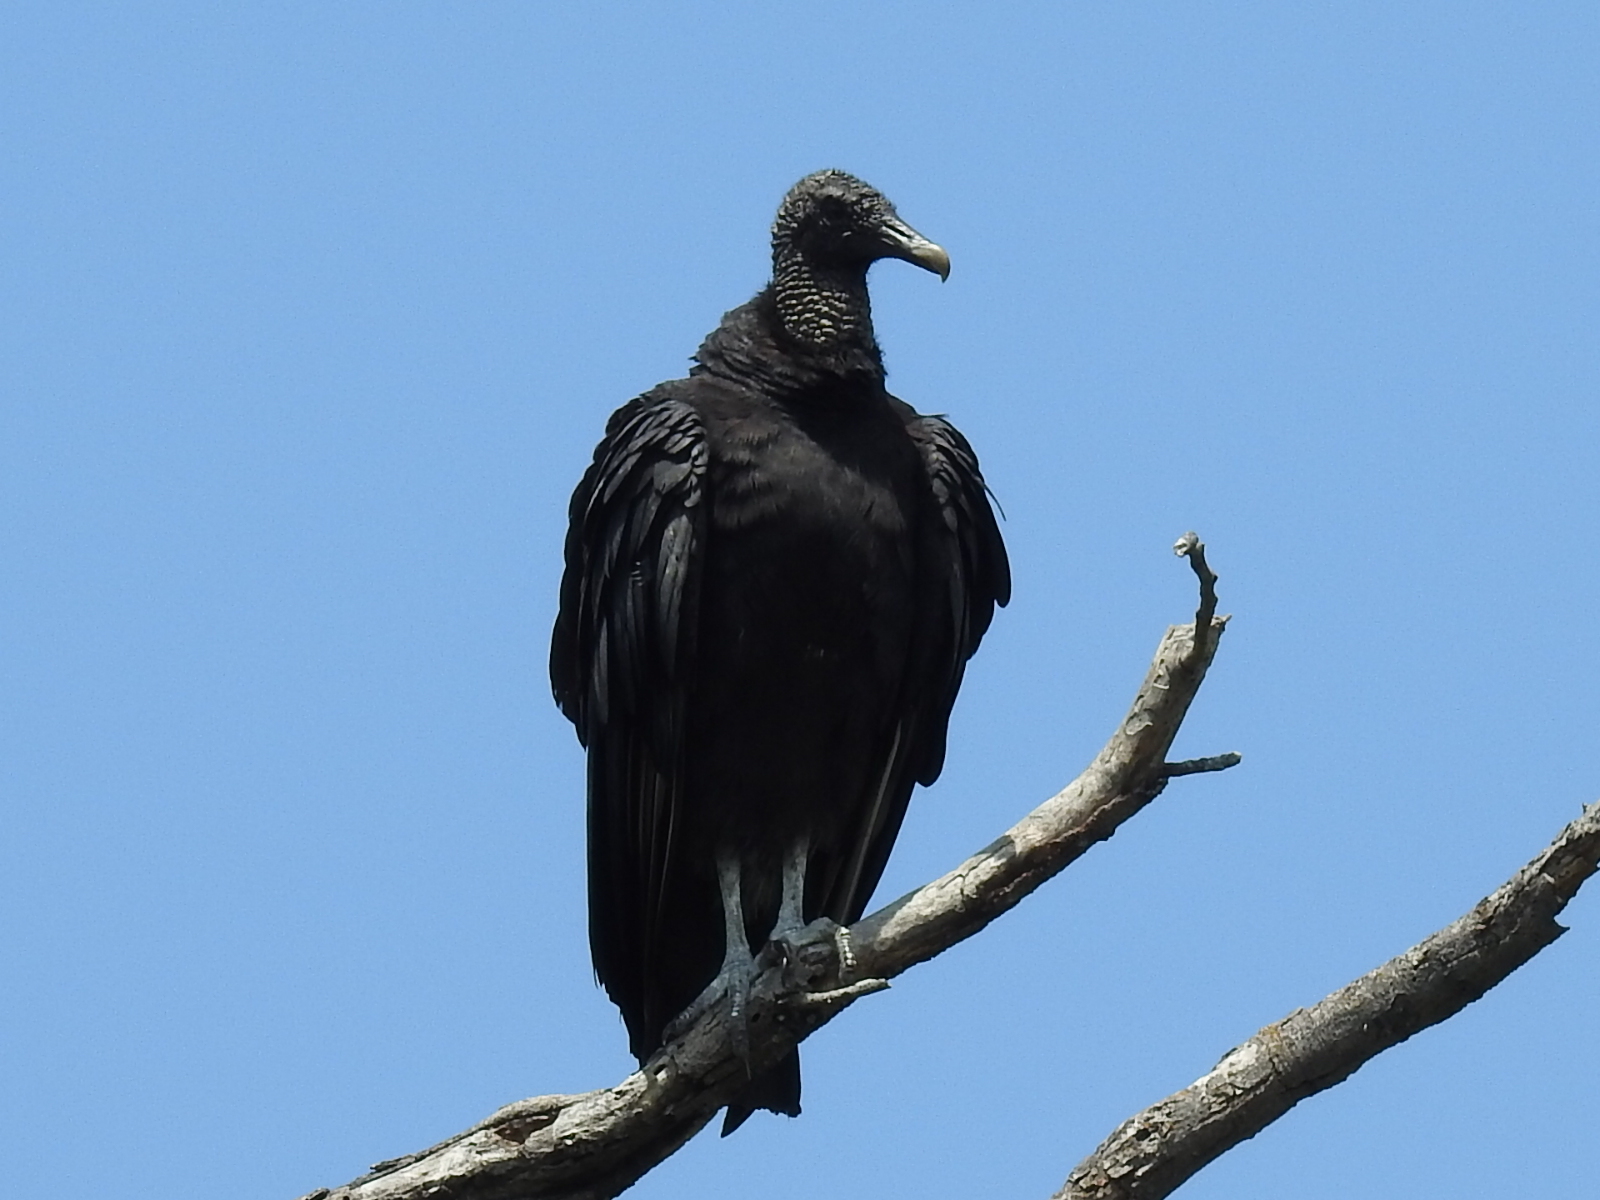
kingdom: Animalia
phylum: Chordata
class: Aves
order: Accipitriformes
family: Cathartidae
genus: Coragyps
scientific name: Coragyps atratus
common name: Black vulture
